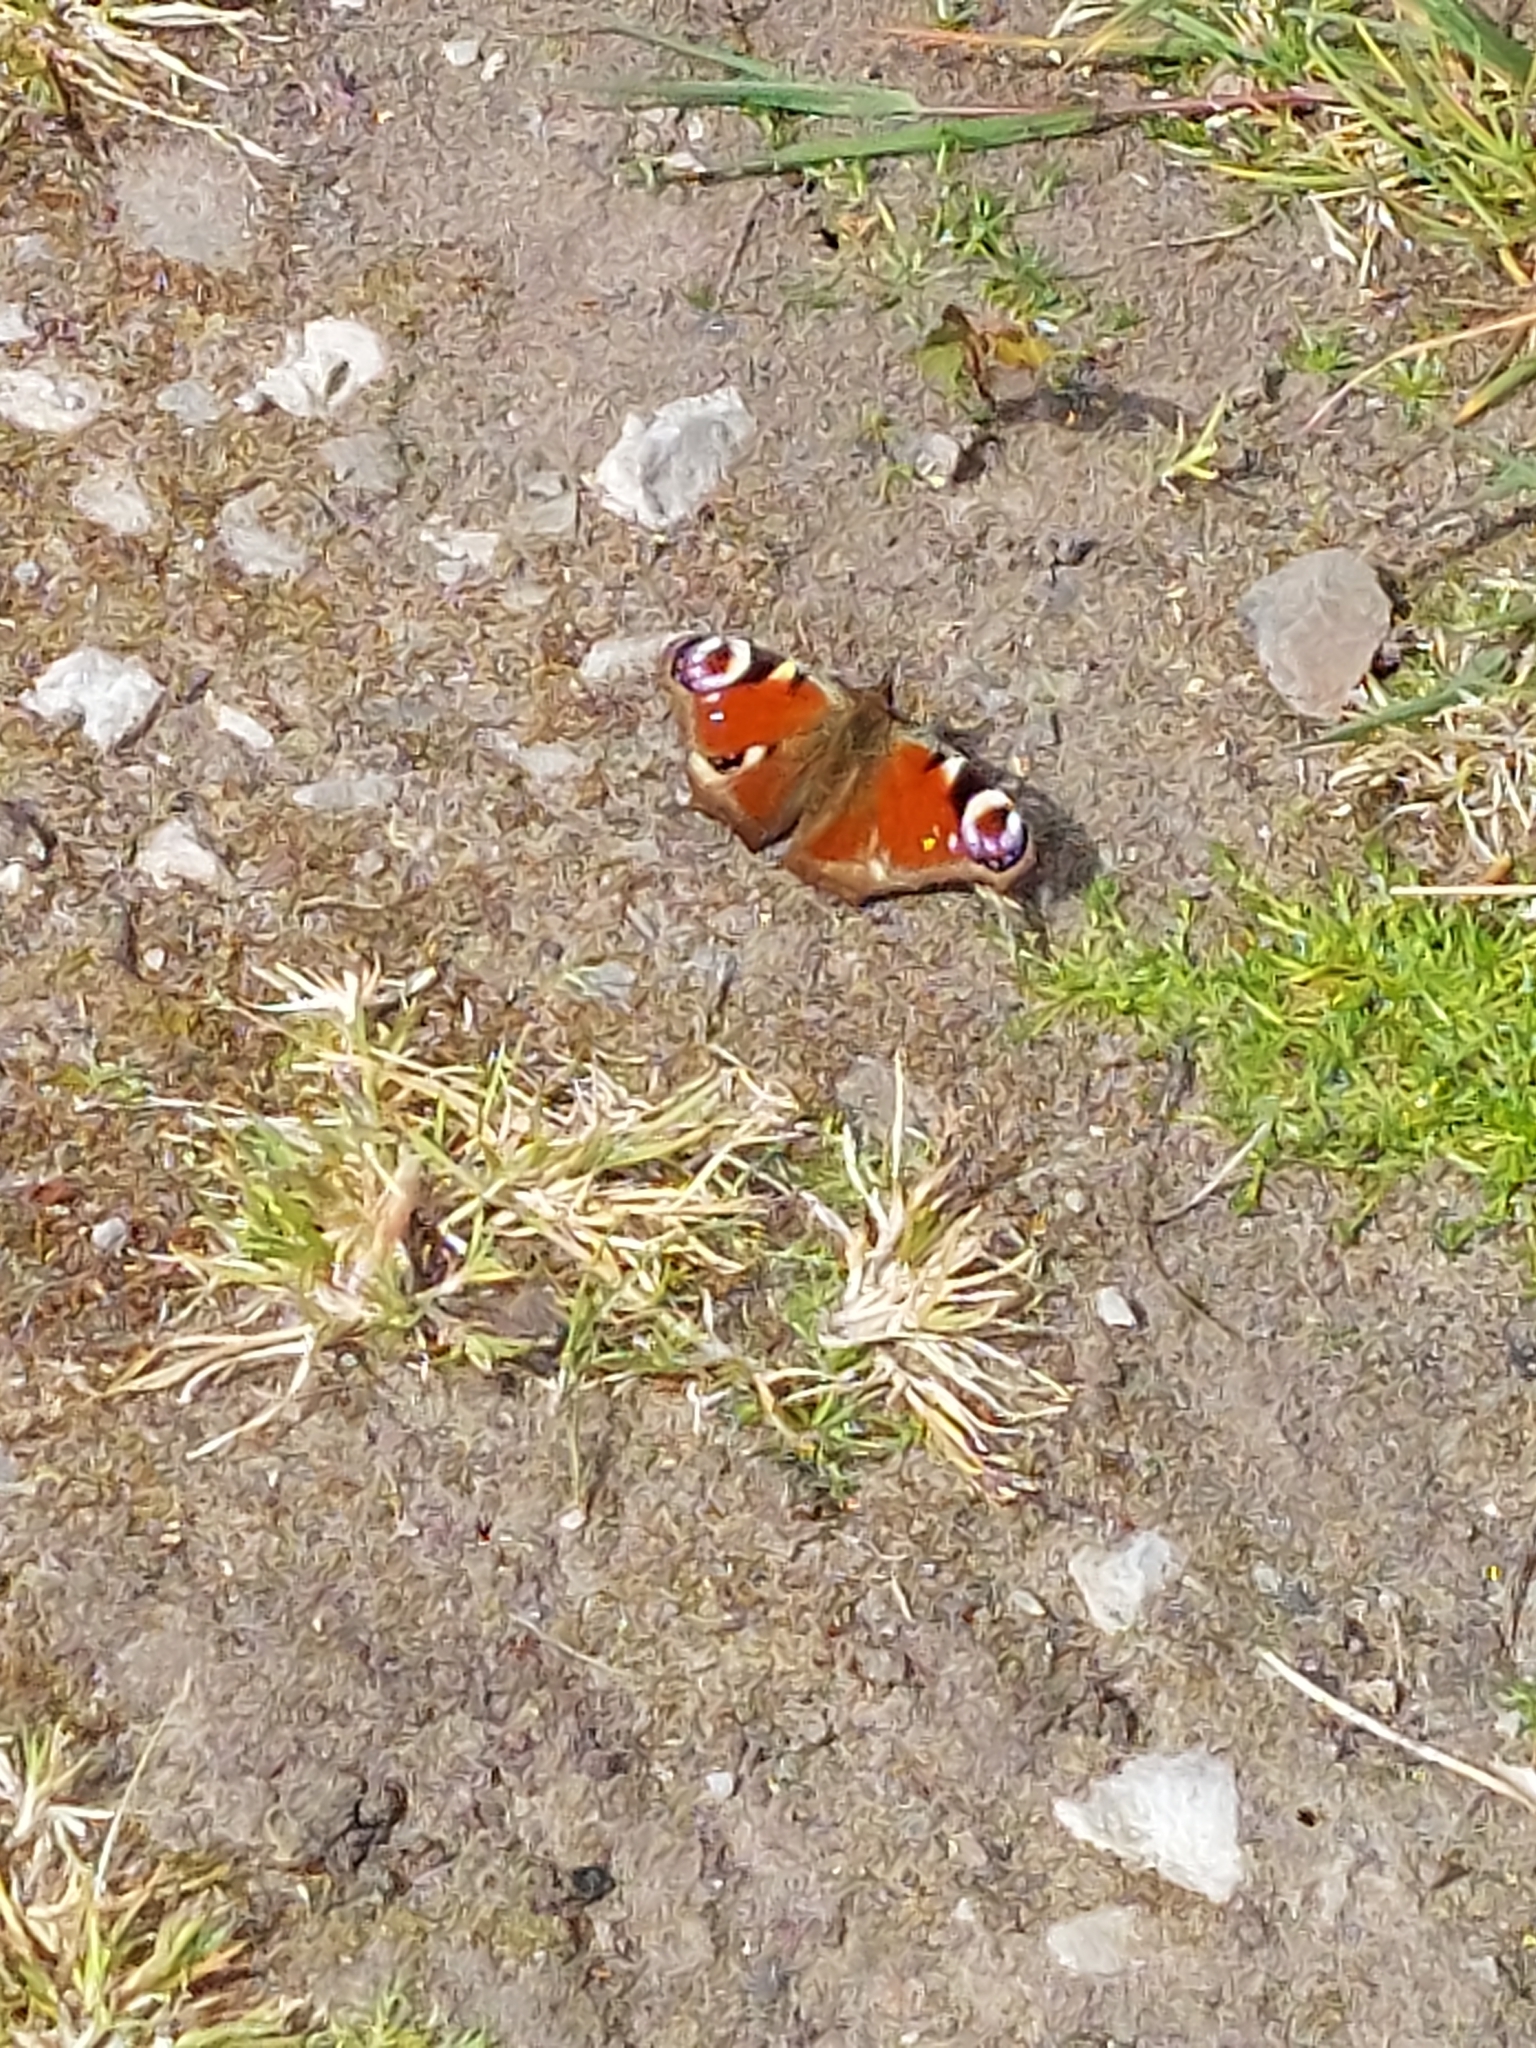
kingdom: Animalia
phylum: Arthropoda
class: Insecta
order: Lepidoptera
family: Nymphalidae
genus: Aglais
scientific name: Aglais io
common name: Peacock
